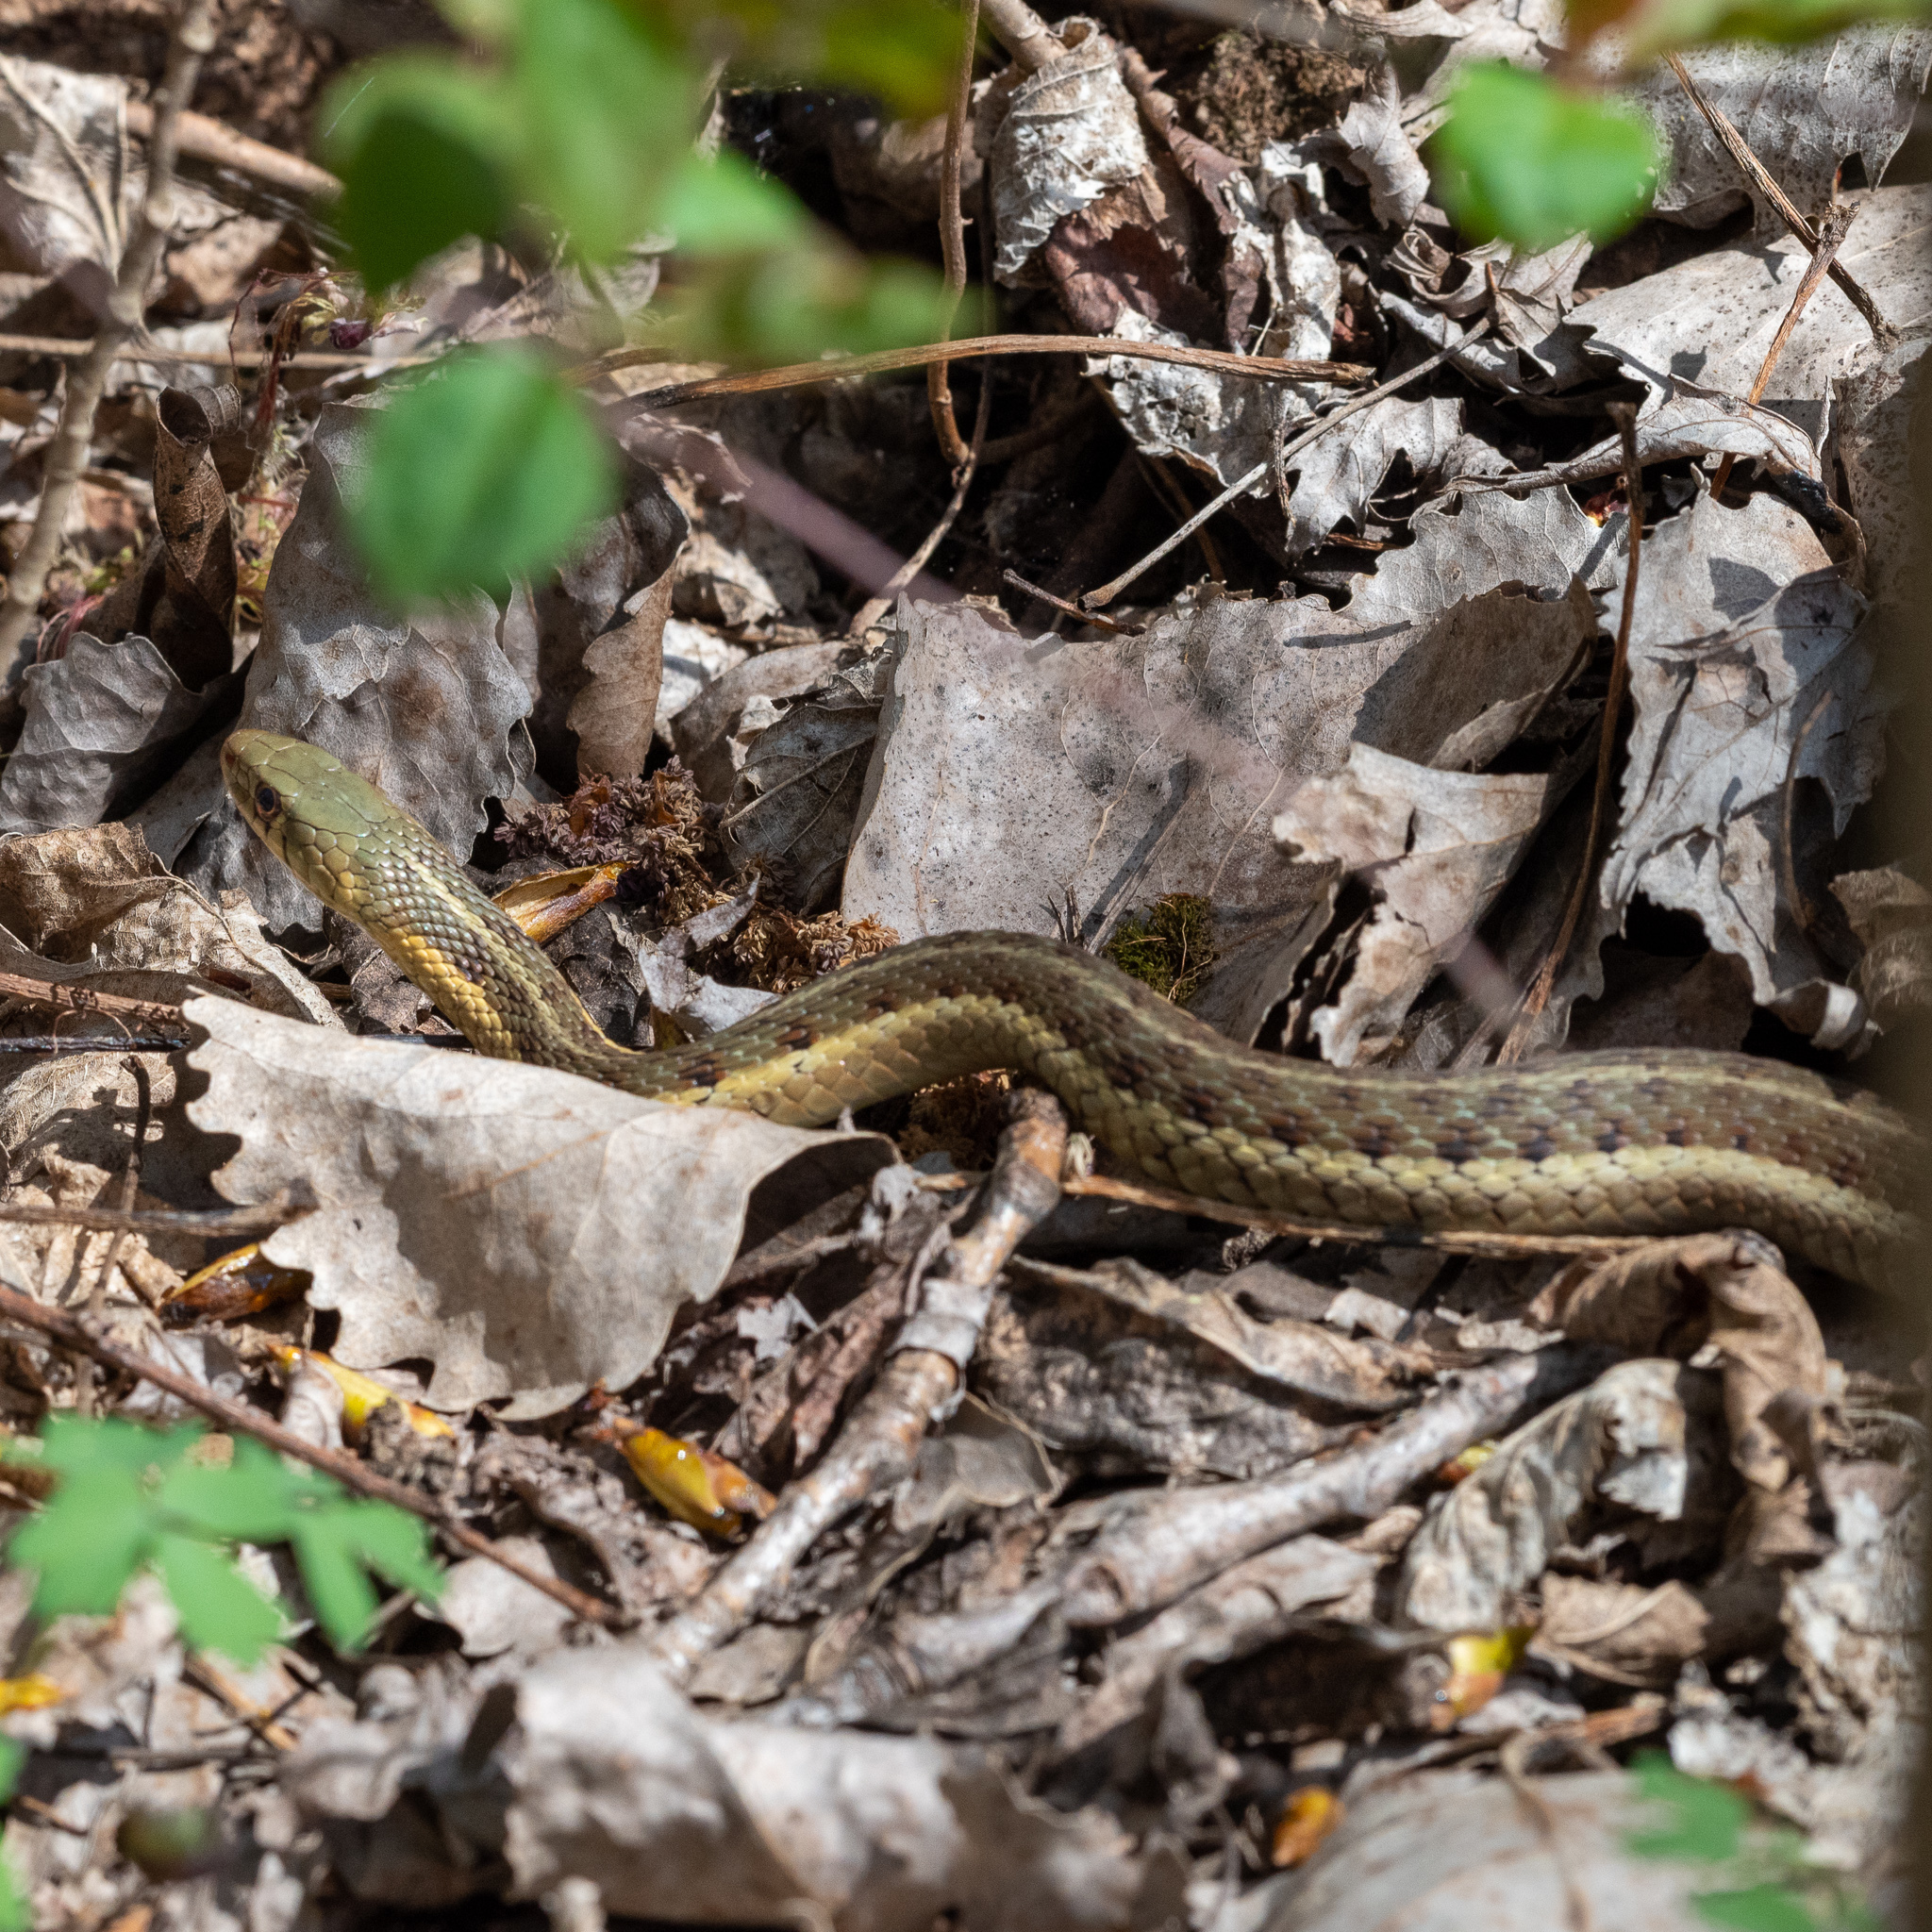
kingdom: Animalia
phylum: Chordata
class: Squamata
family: Colubridae
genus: Thamnophis
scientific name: Thamnophis sirtalis
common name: Common garter snake
